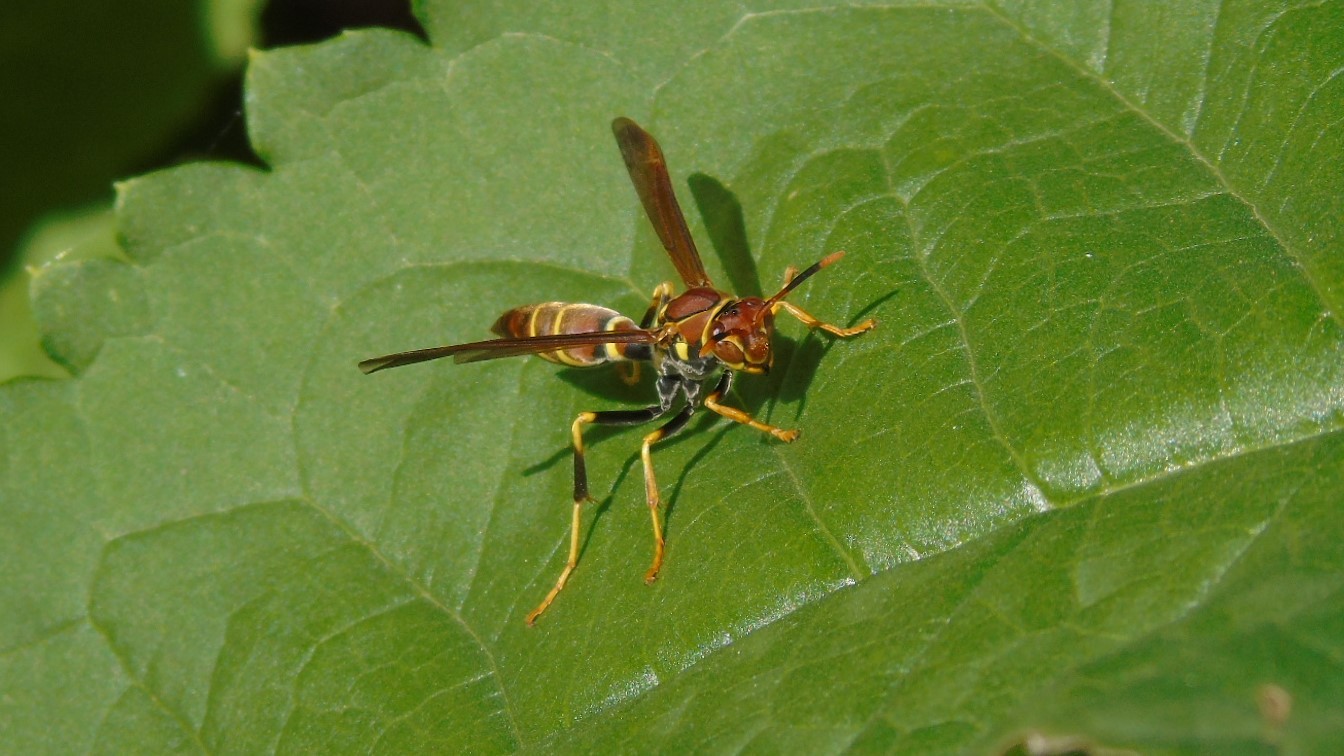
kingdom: Animalia
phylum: Arthropoda
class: Insecta
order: Hymenoptera
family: Eumenidae
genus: Polistes
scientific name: Polistes instabilis
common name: Unstable paper wasp
